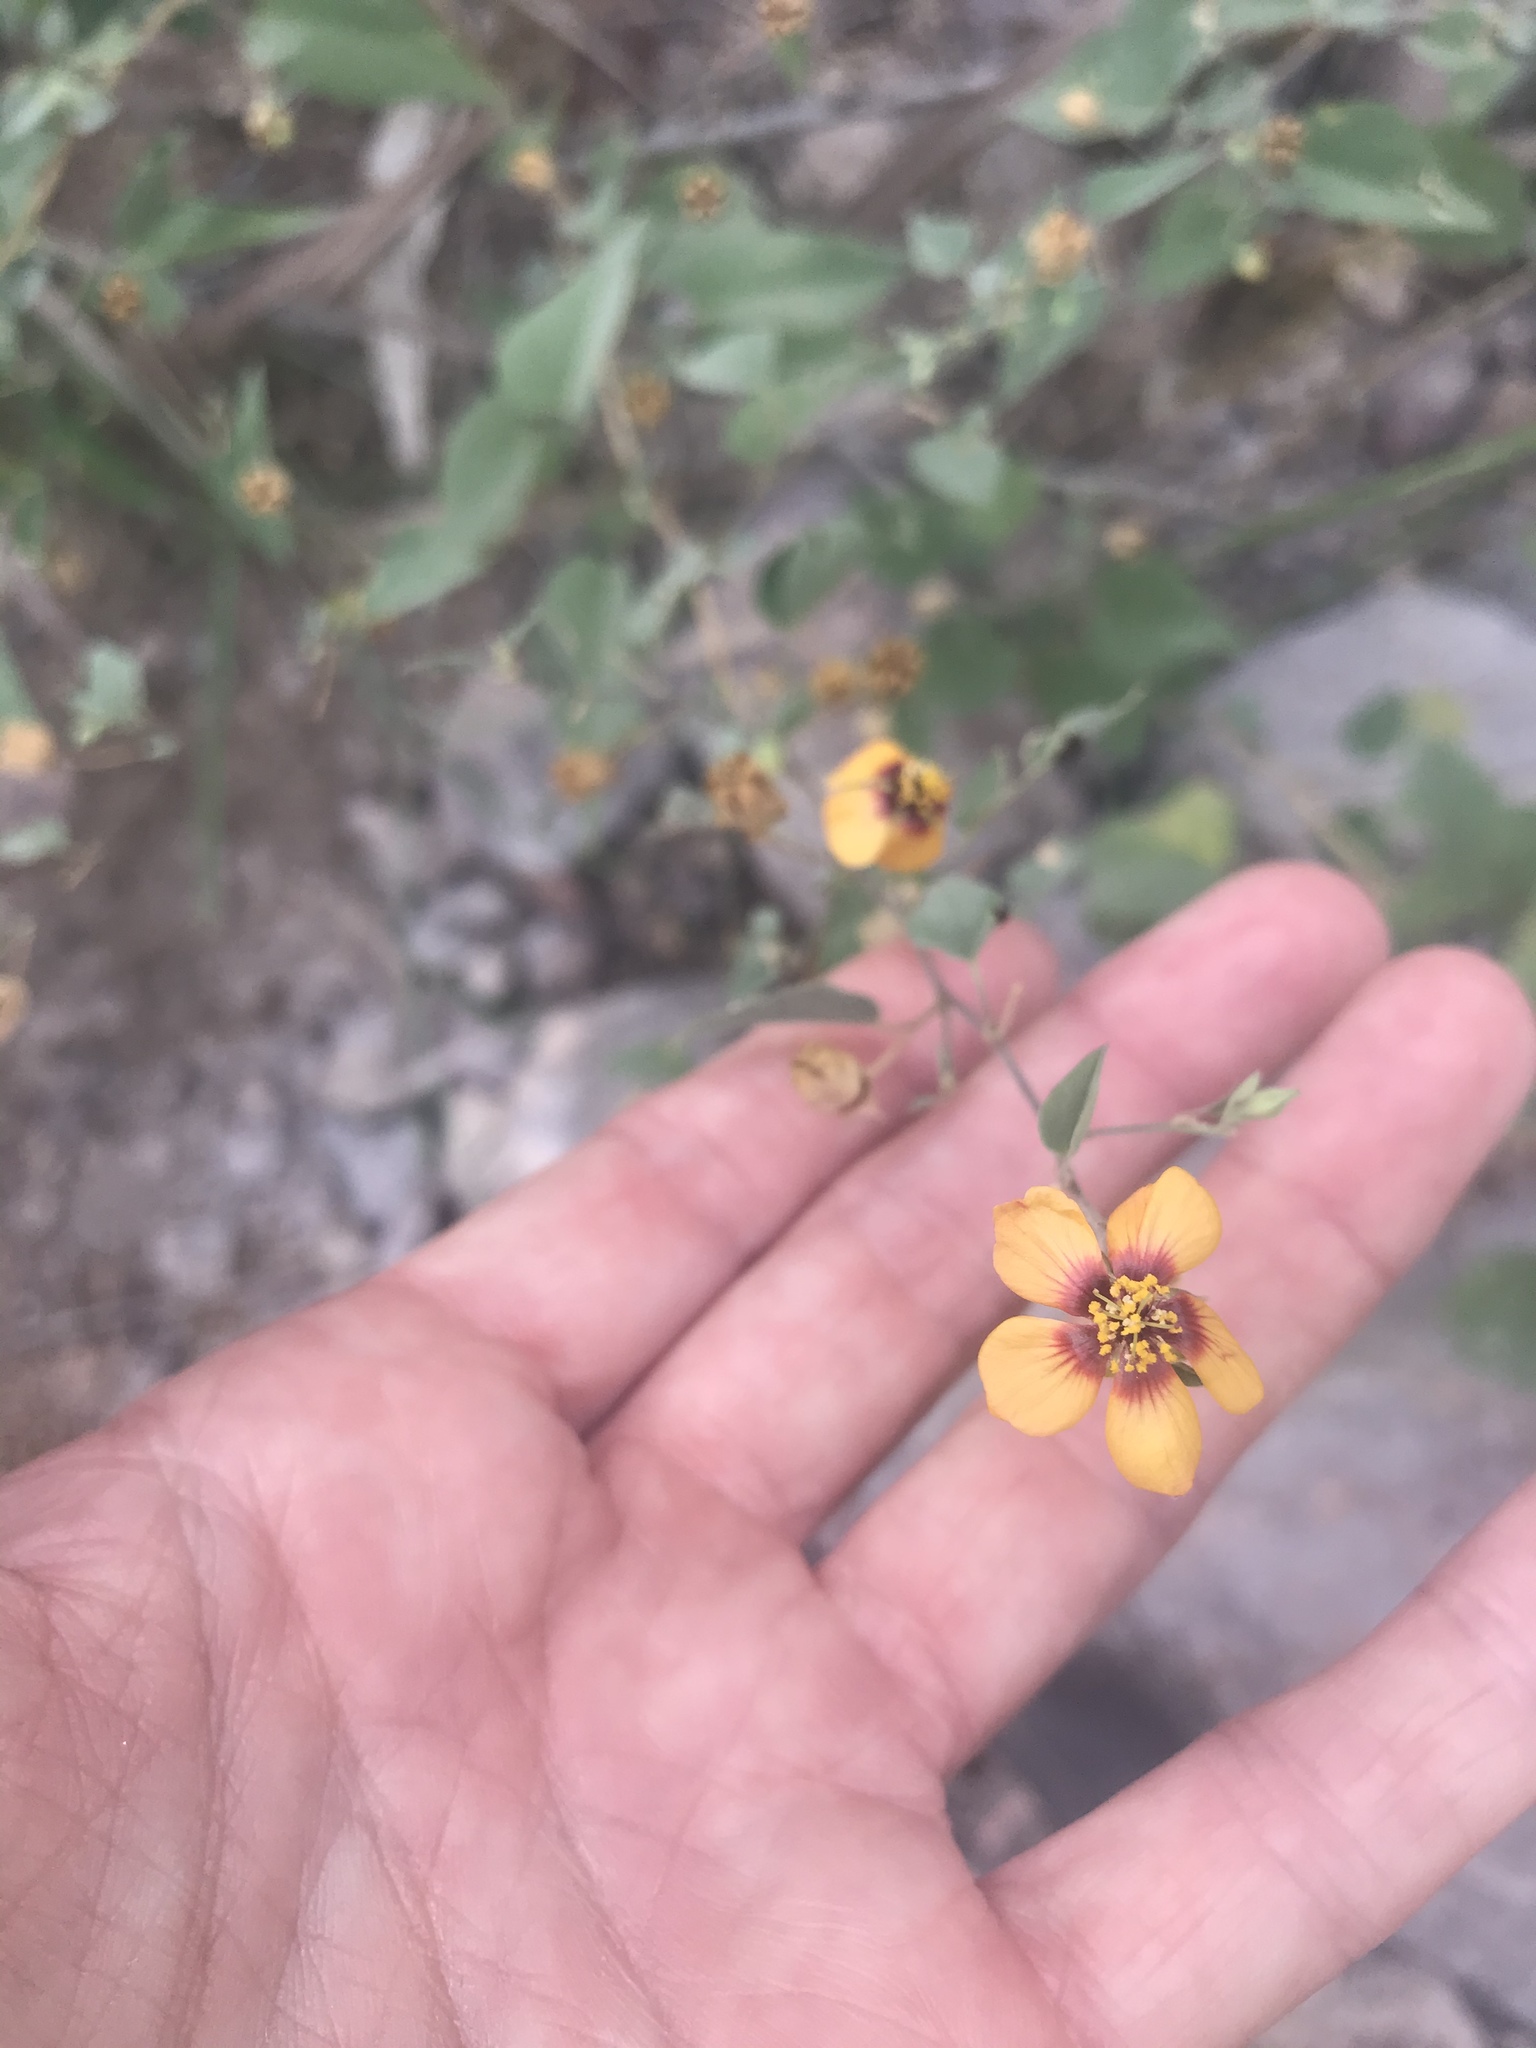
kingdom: Plantae
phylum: Tracheophyta
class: Magnoliopsida
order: Malvales
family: Malvaceae
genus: Abutilon
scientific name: Abutilon incanum
